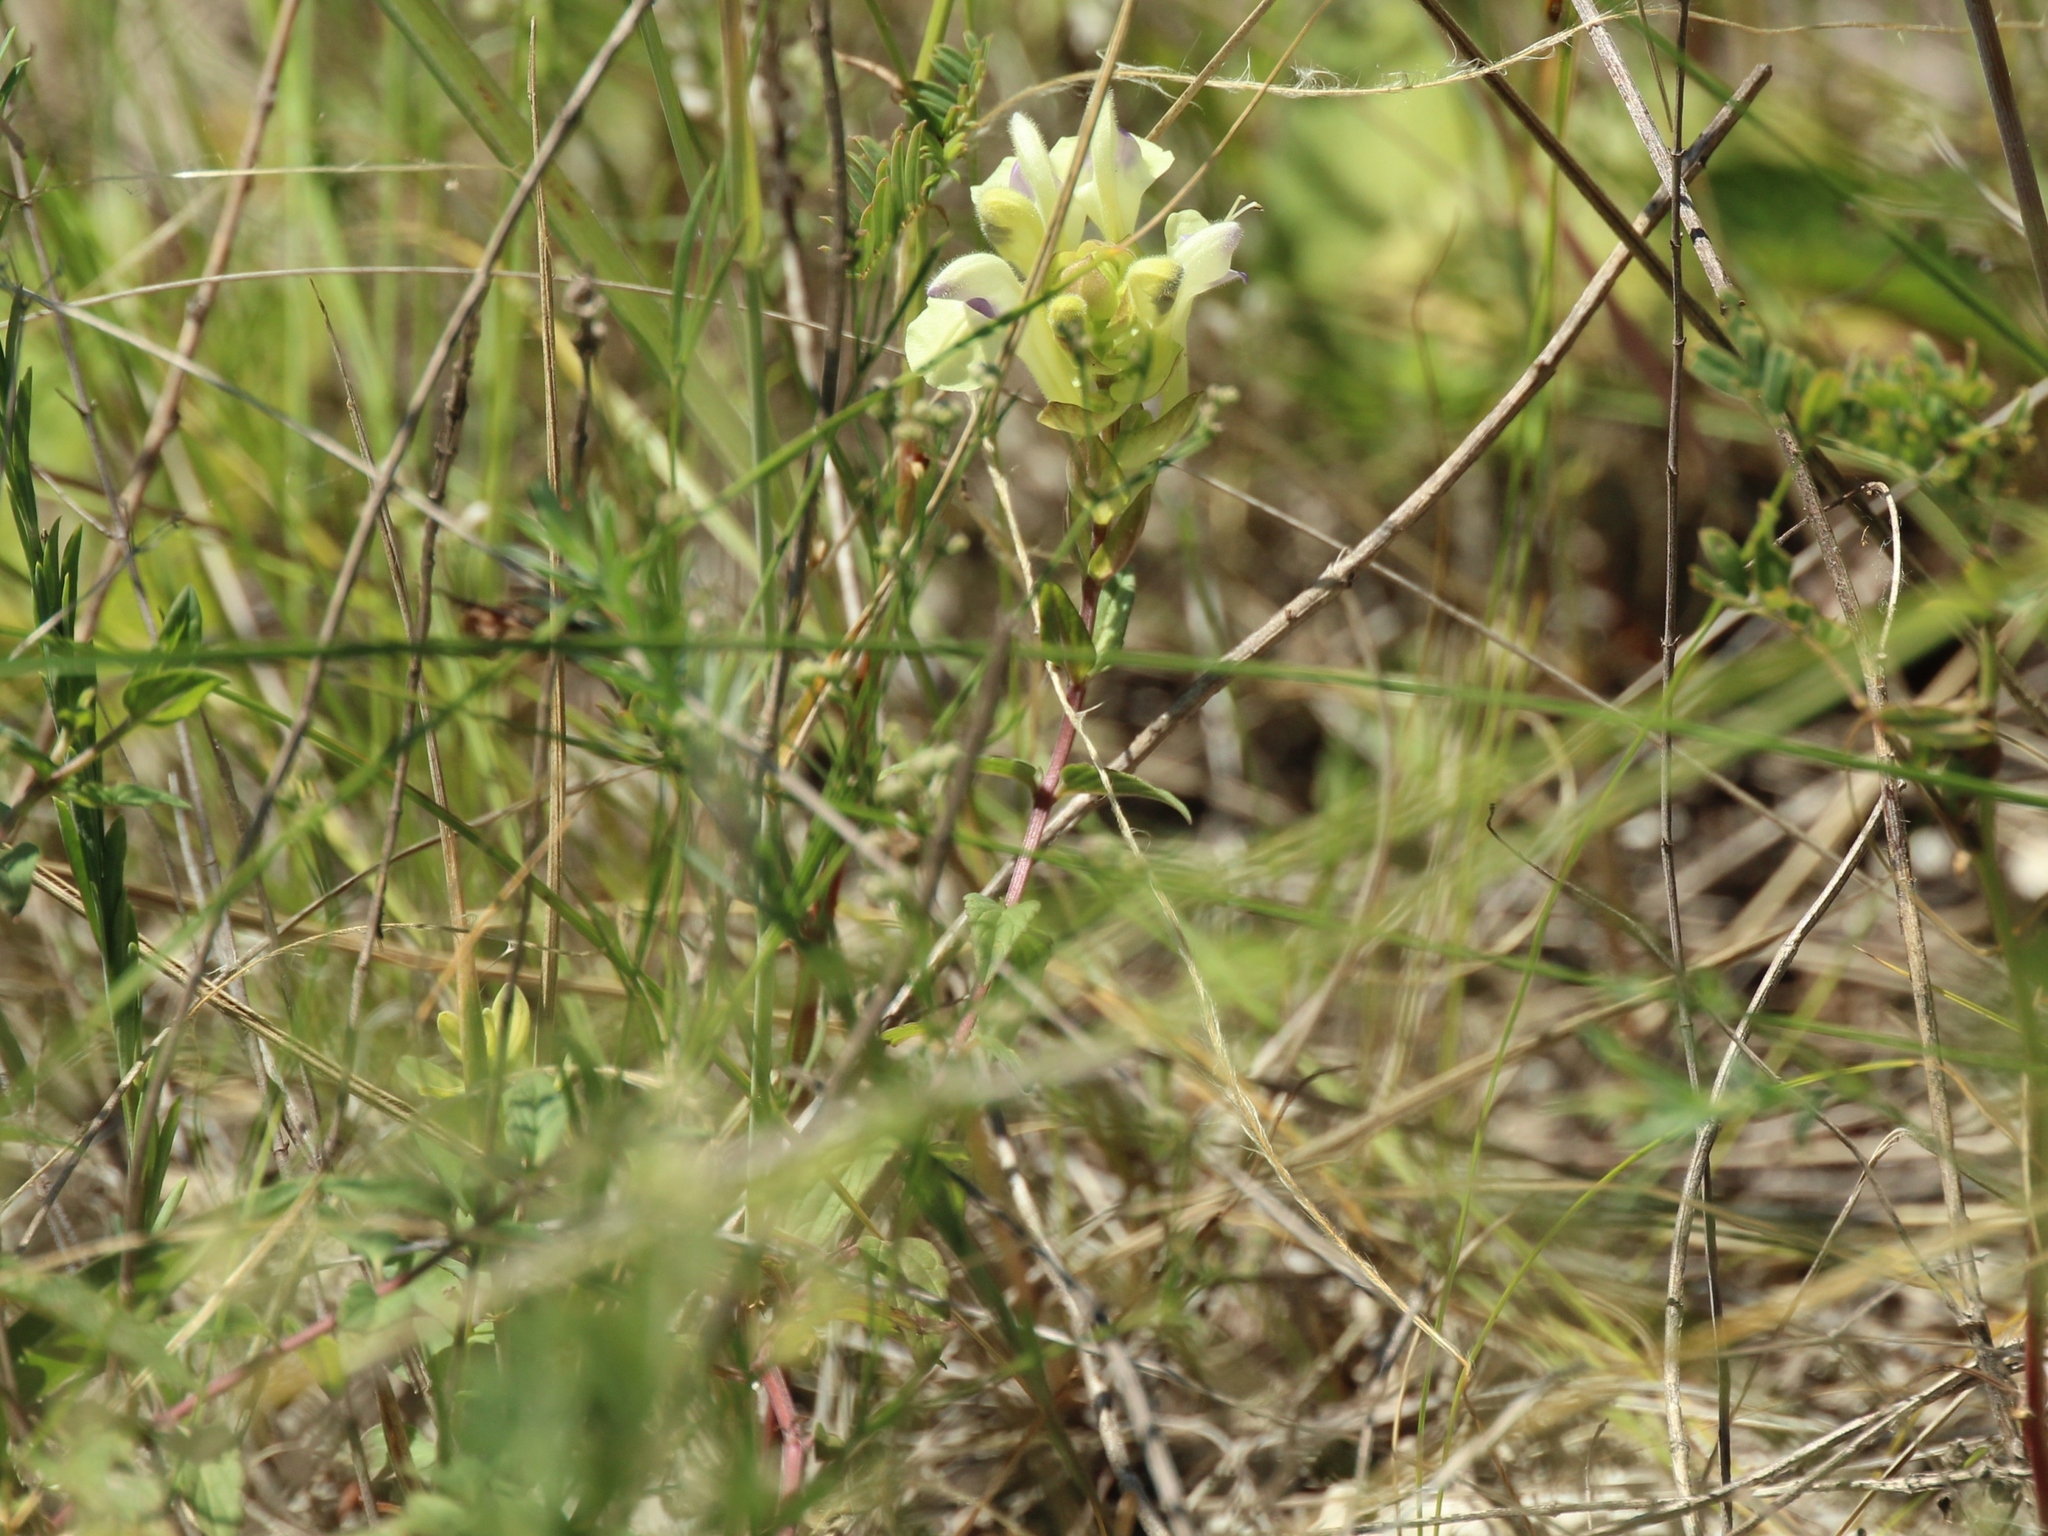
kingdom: Plantae
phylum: Tracheophyta
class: Magnoliopsida
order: Lamiales
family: Lamiaceae
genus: Scutellaria
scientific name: Scutellaria supina
